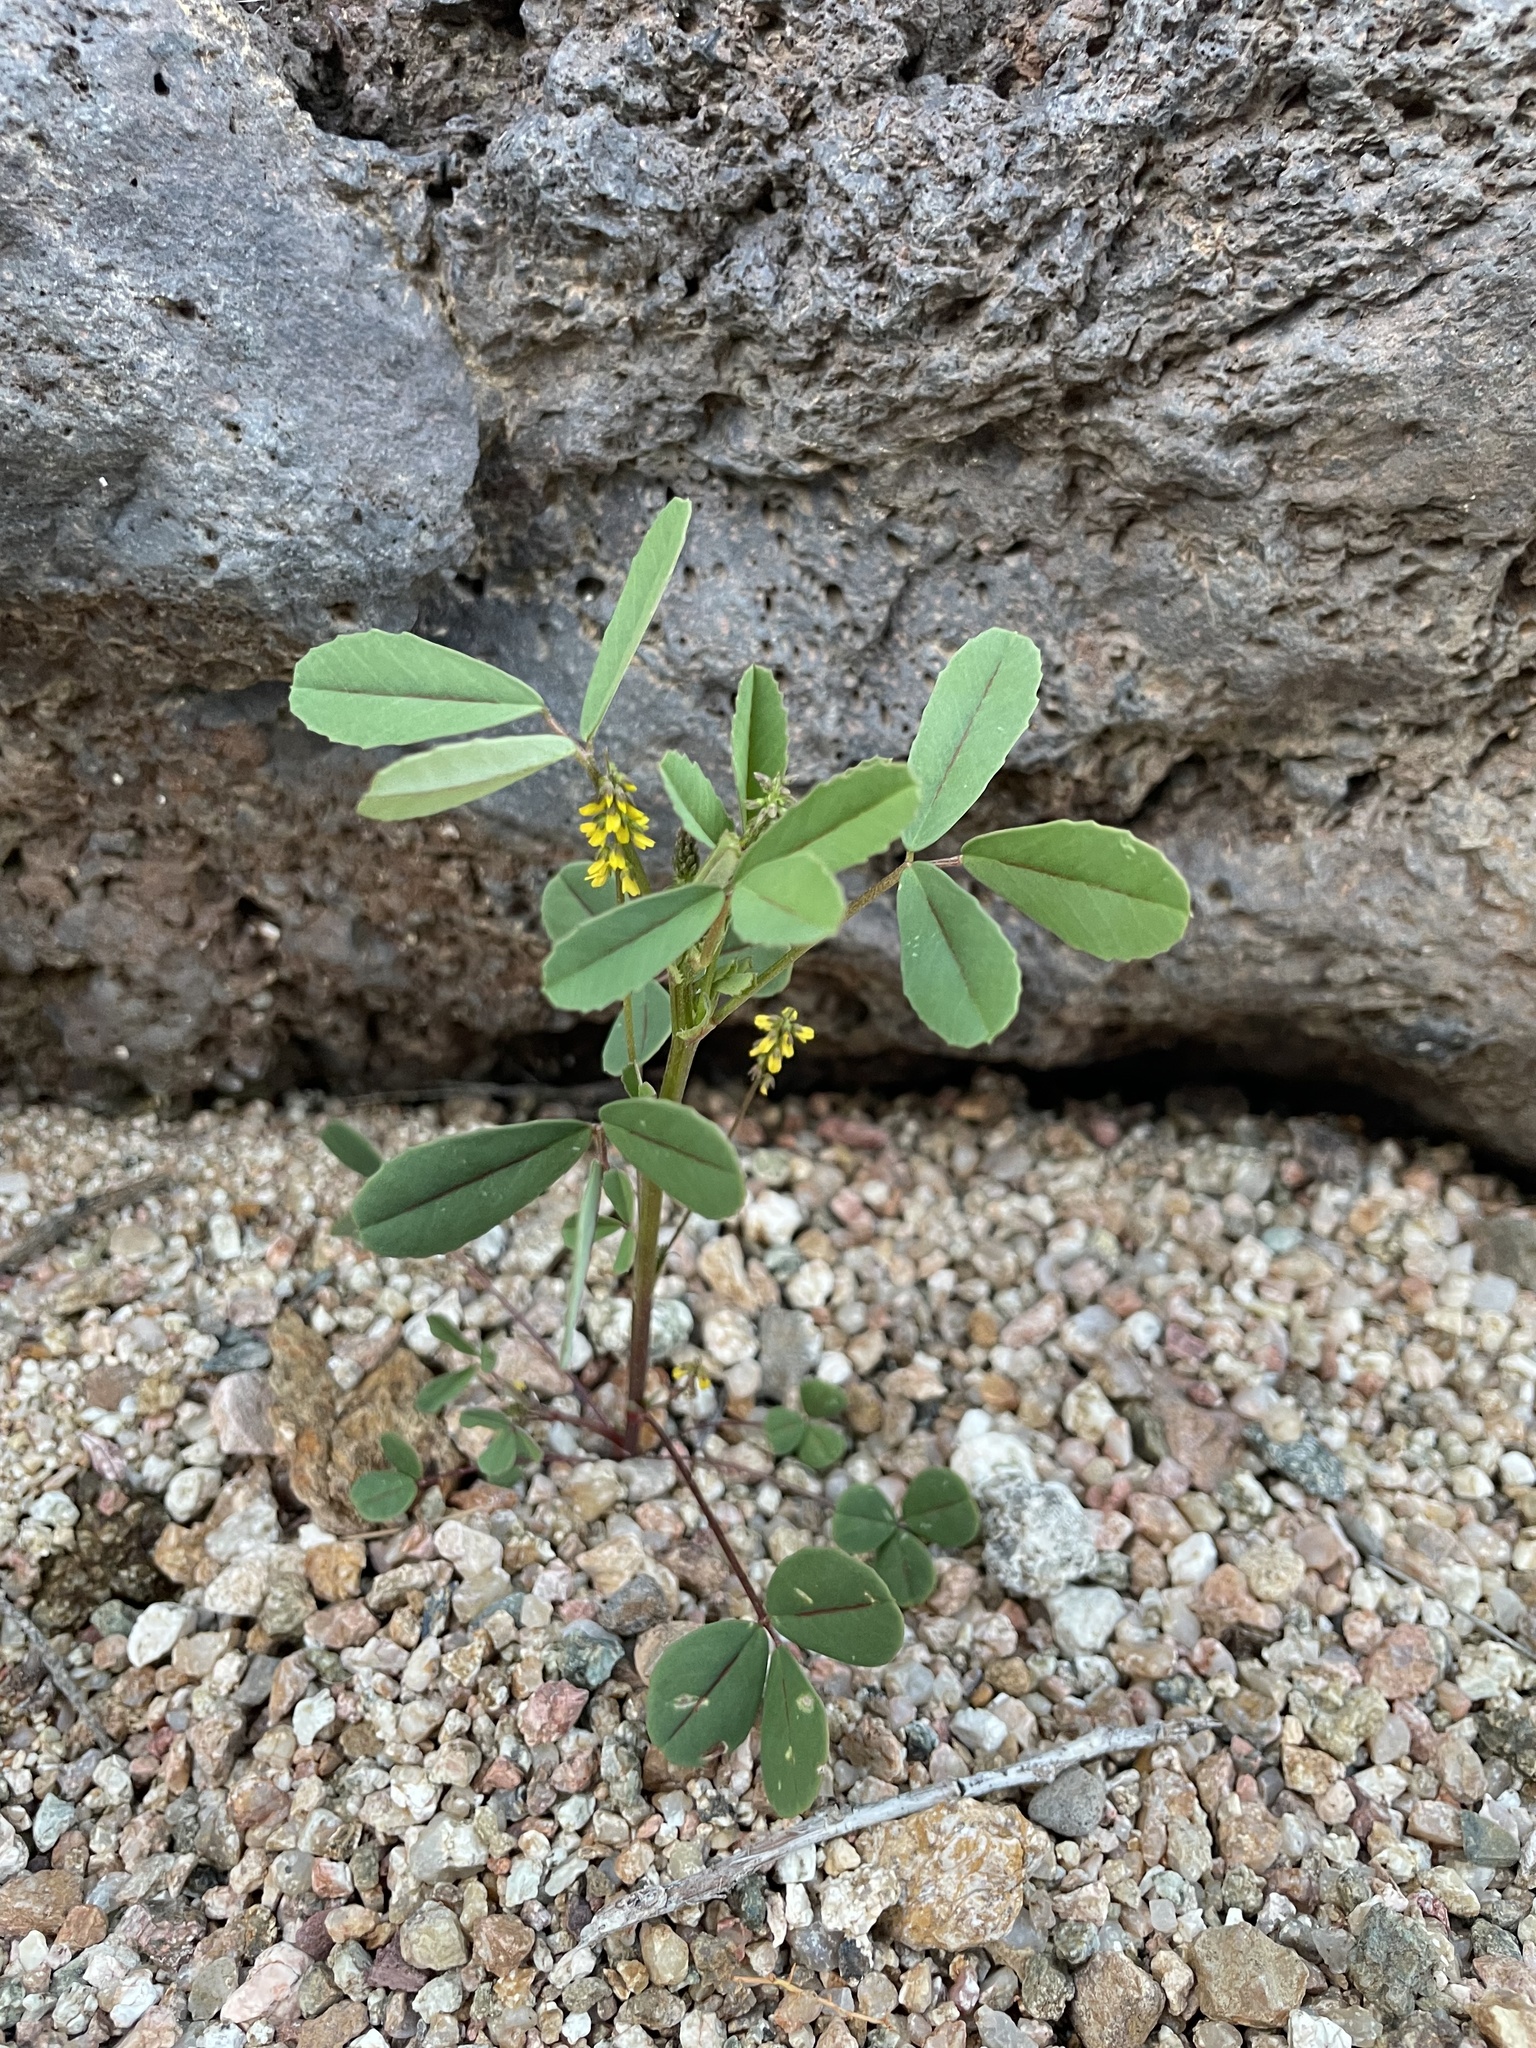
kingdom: Plantae
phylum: Tracheophyta
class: Magnoliopsida
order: Fabales
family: Fabaceae
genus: Melilotus
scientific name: Melilotus indicus
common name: Small melilot
